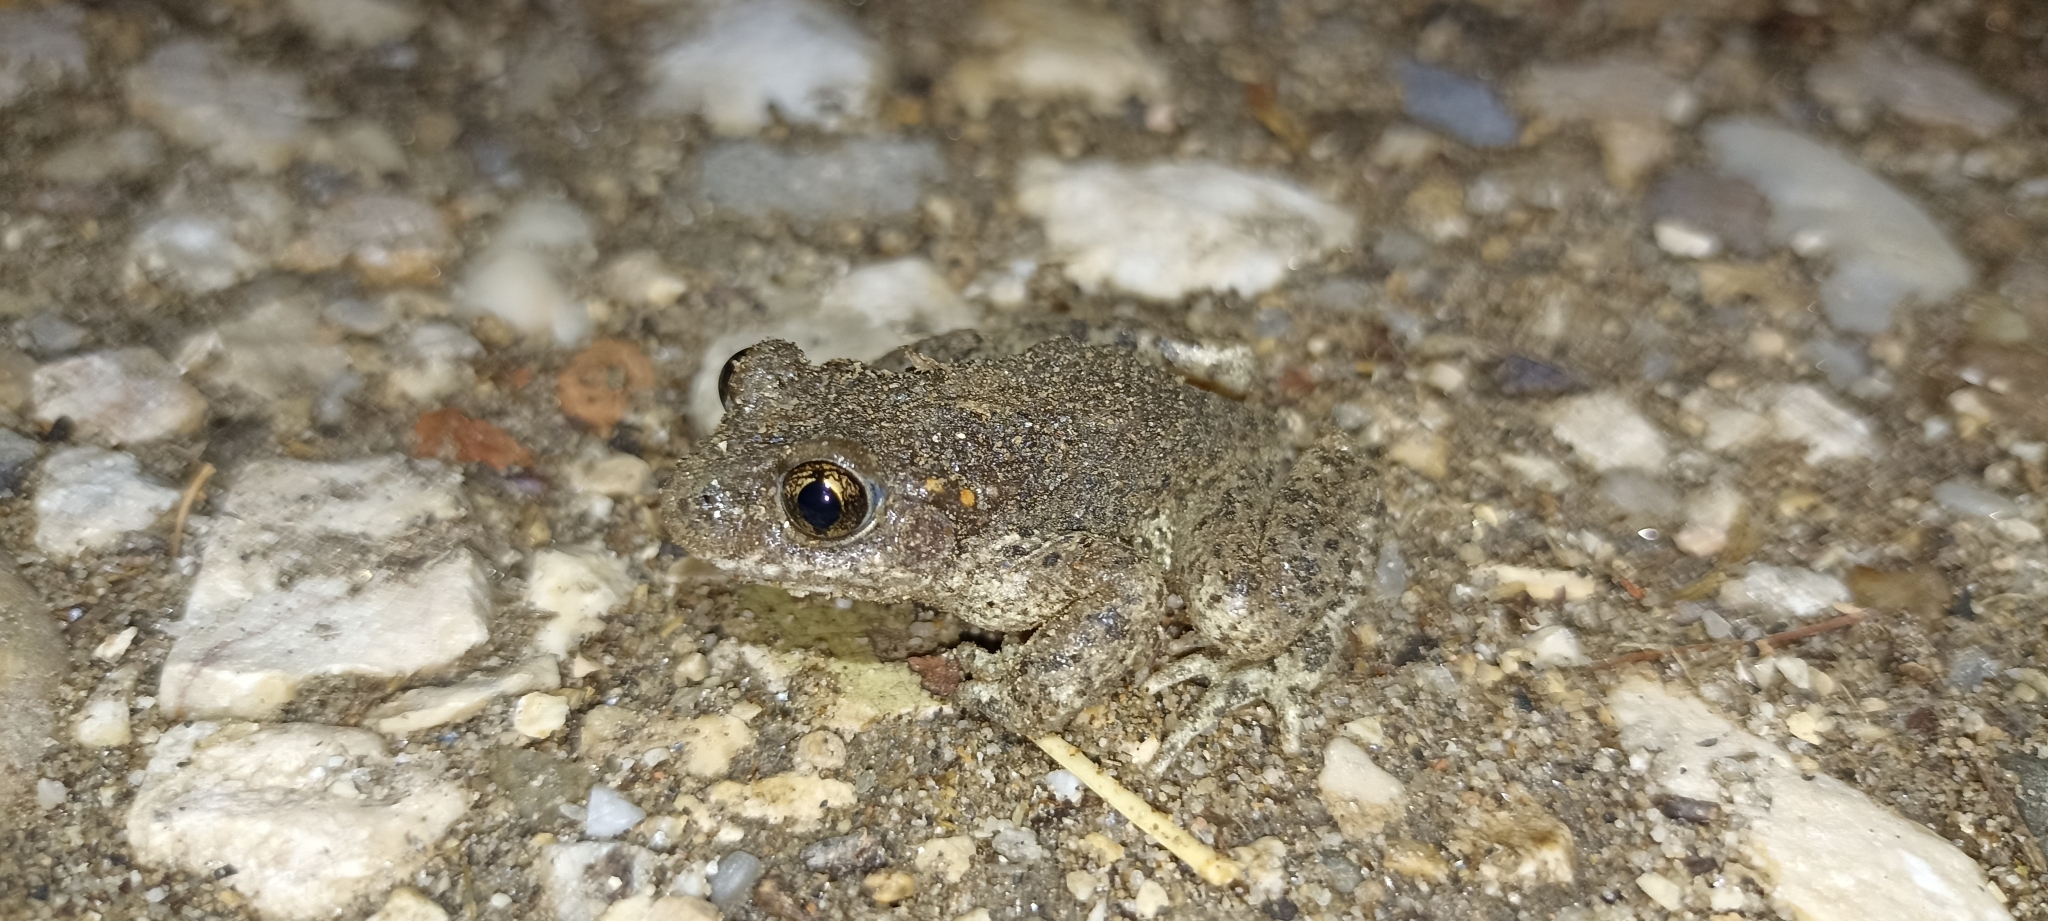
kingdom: Animalia
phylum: Chordata
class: Amphibia
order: Anura
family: Alytidae
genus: Alytes
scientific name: Alytes obstetricans
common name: Midwife toad
